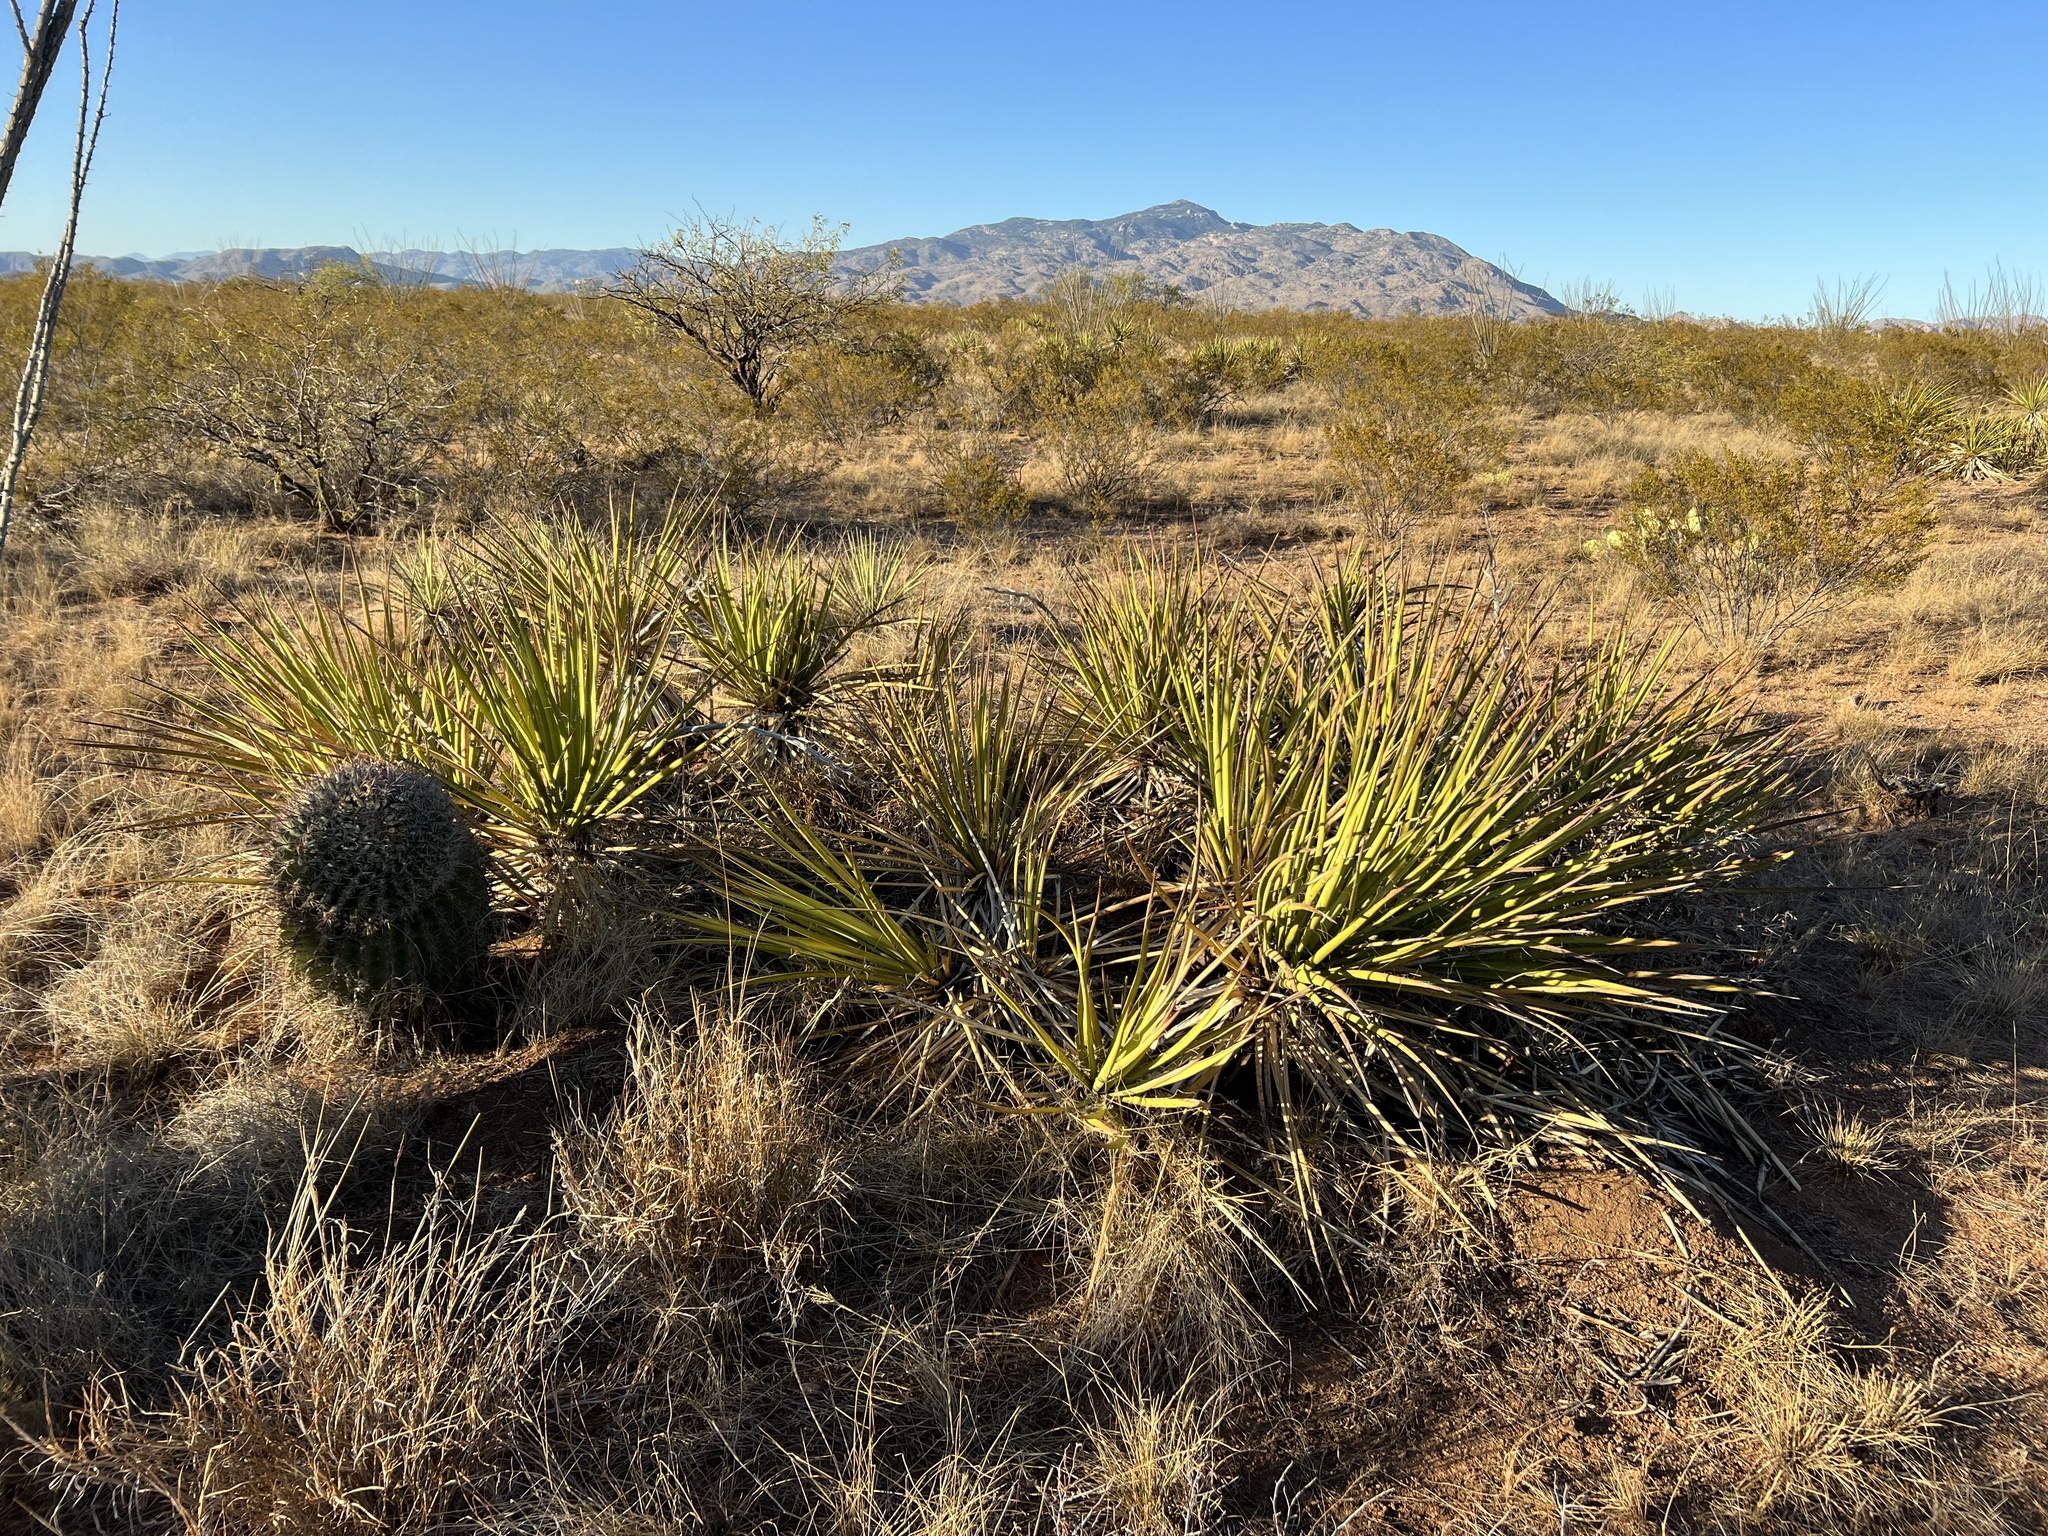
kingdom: Plantae
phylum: Tracheophyta
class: Liliopsida
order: Asparagales
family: Asparagaceae
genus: Yucca
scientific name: Yucca baccata
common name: Banana yucca
